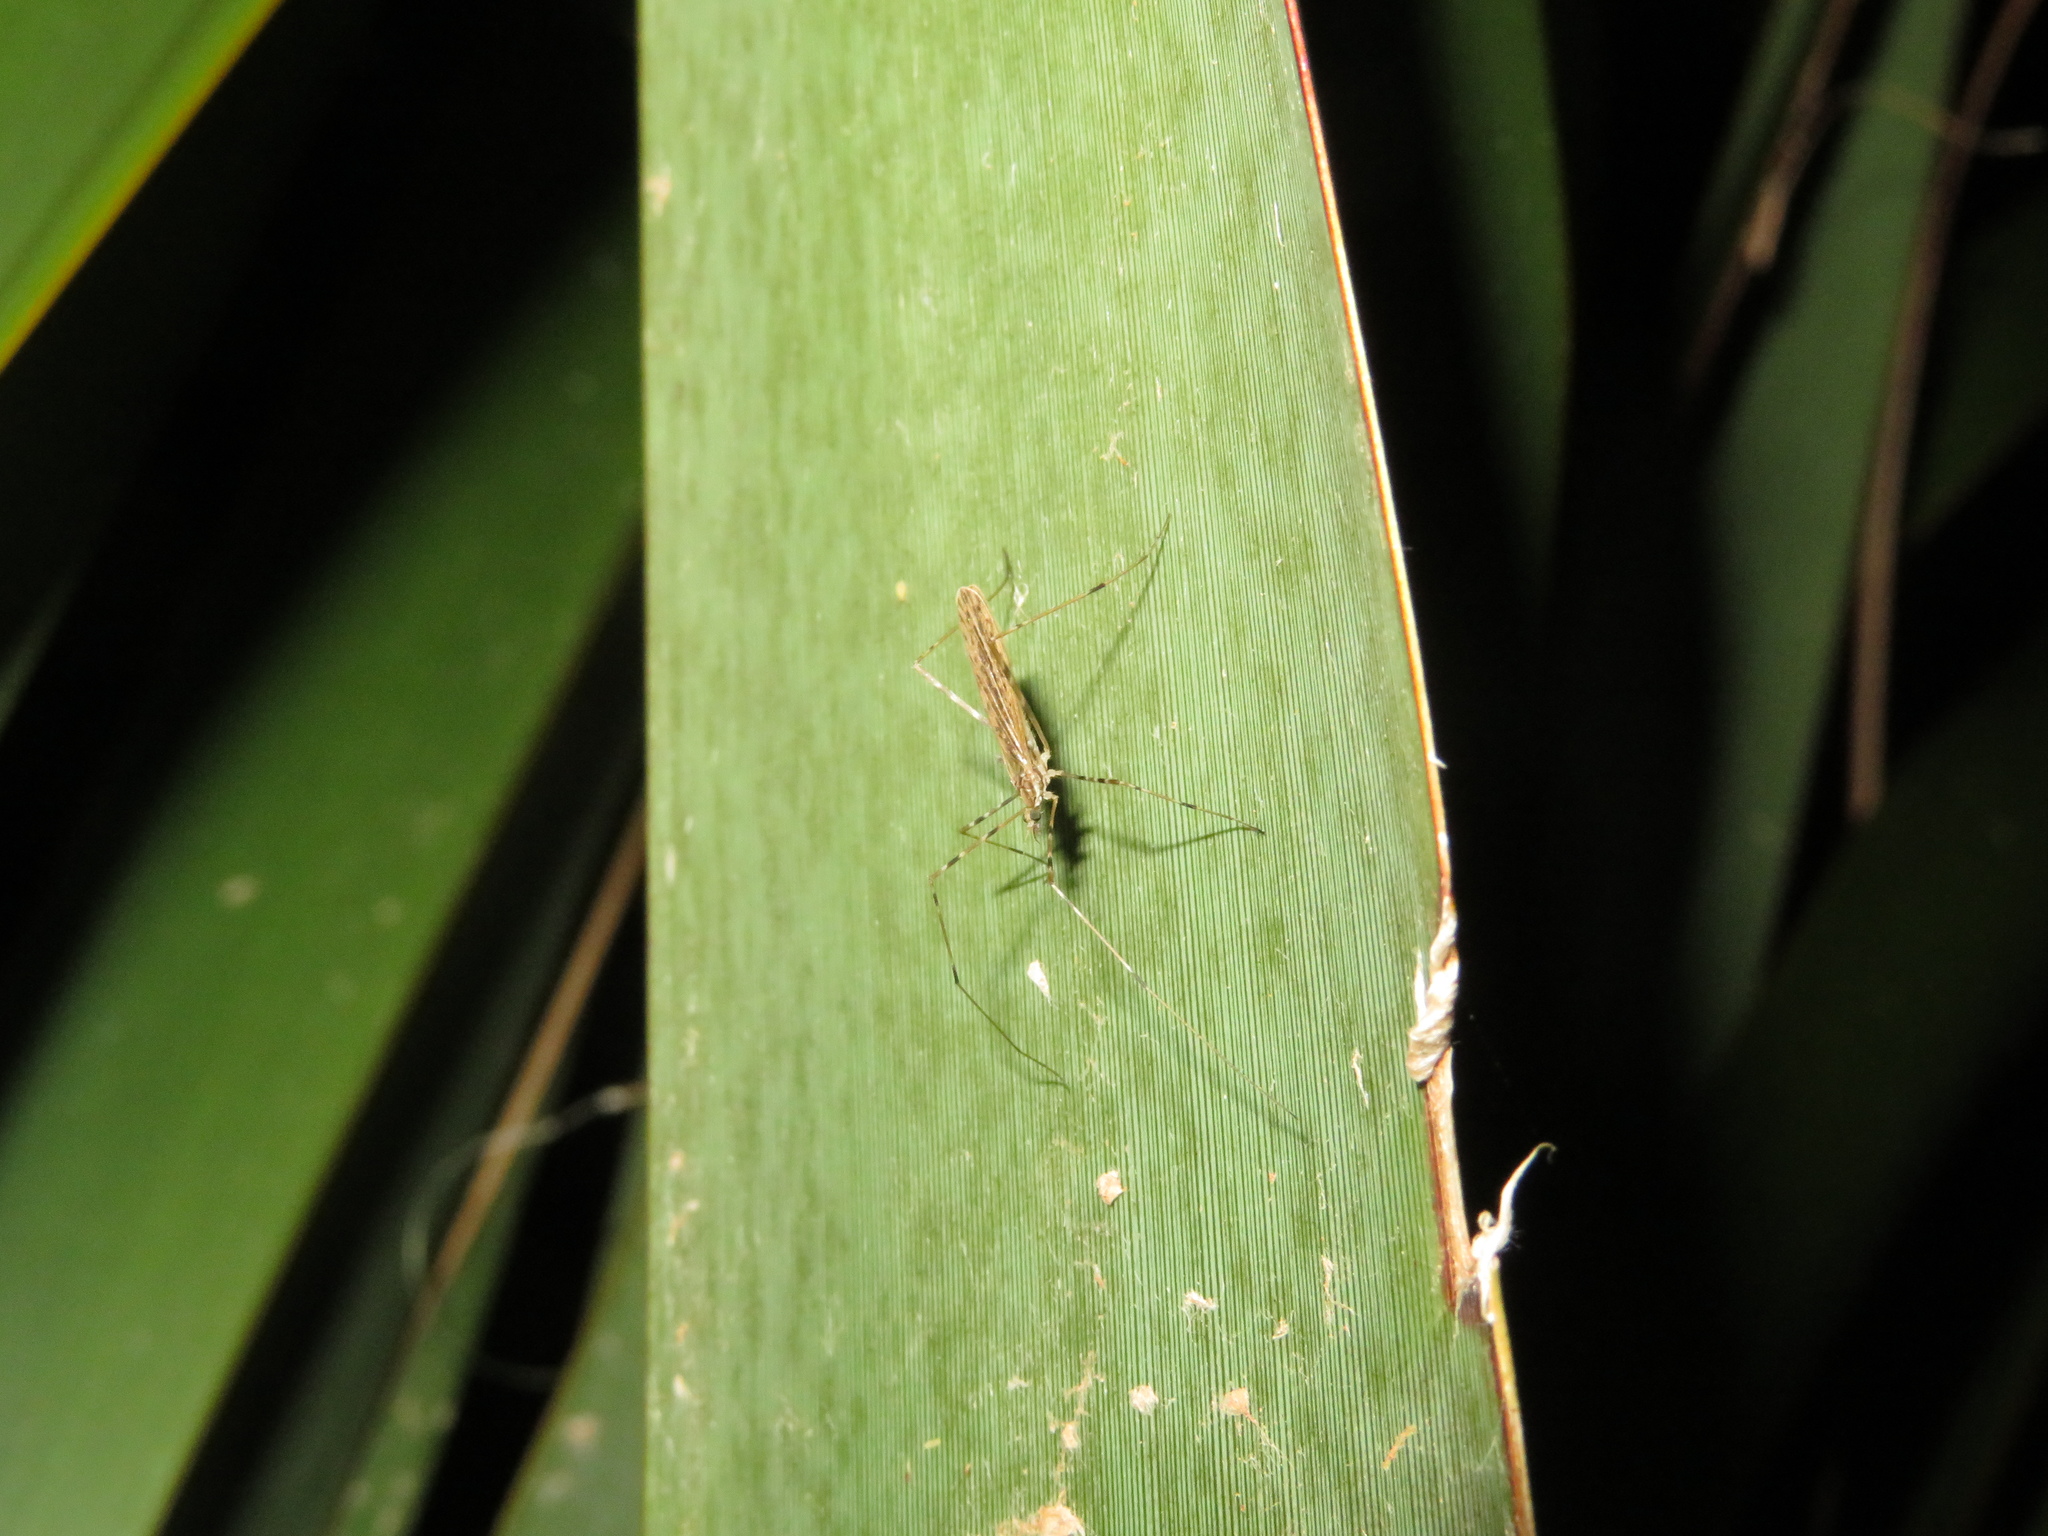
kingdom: Animalia
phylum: Arthropoda
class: Insecta
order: Diptera
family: Limoniidae
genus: Amphineurus
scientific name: Amphineurus hudsoni
